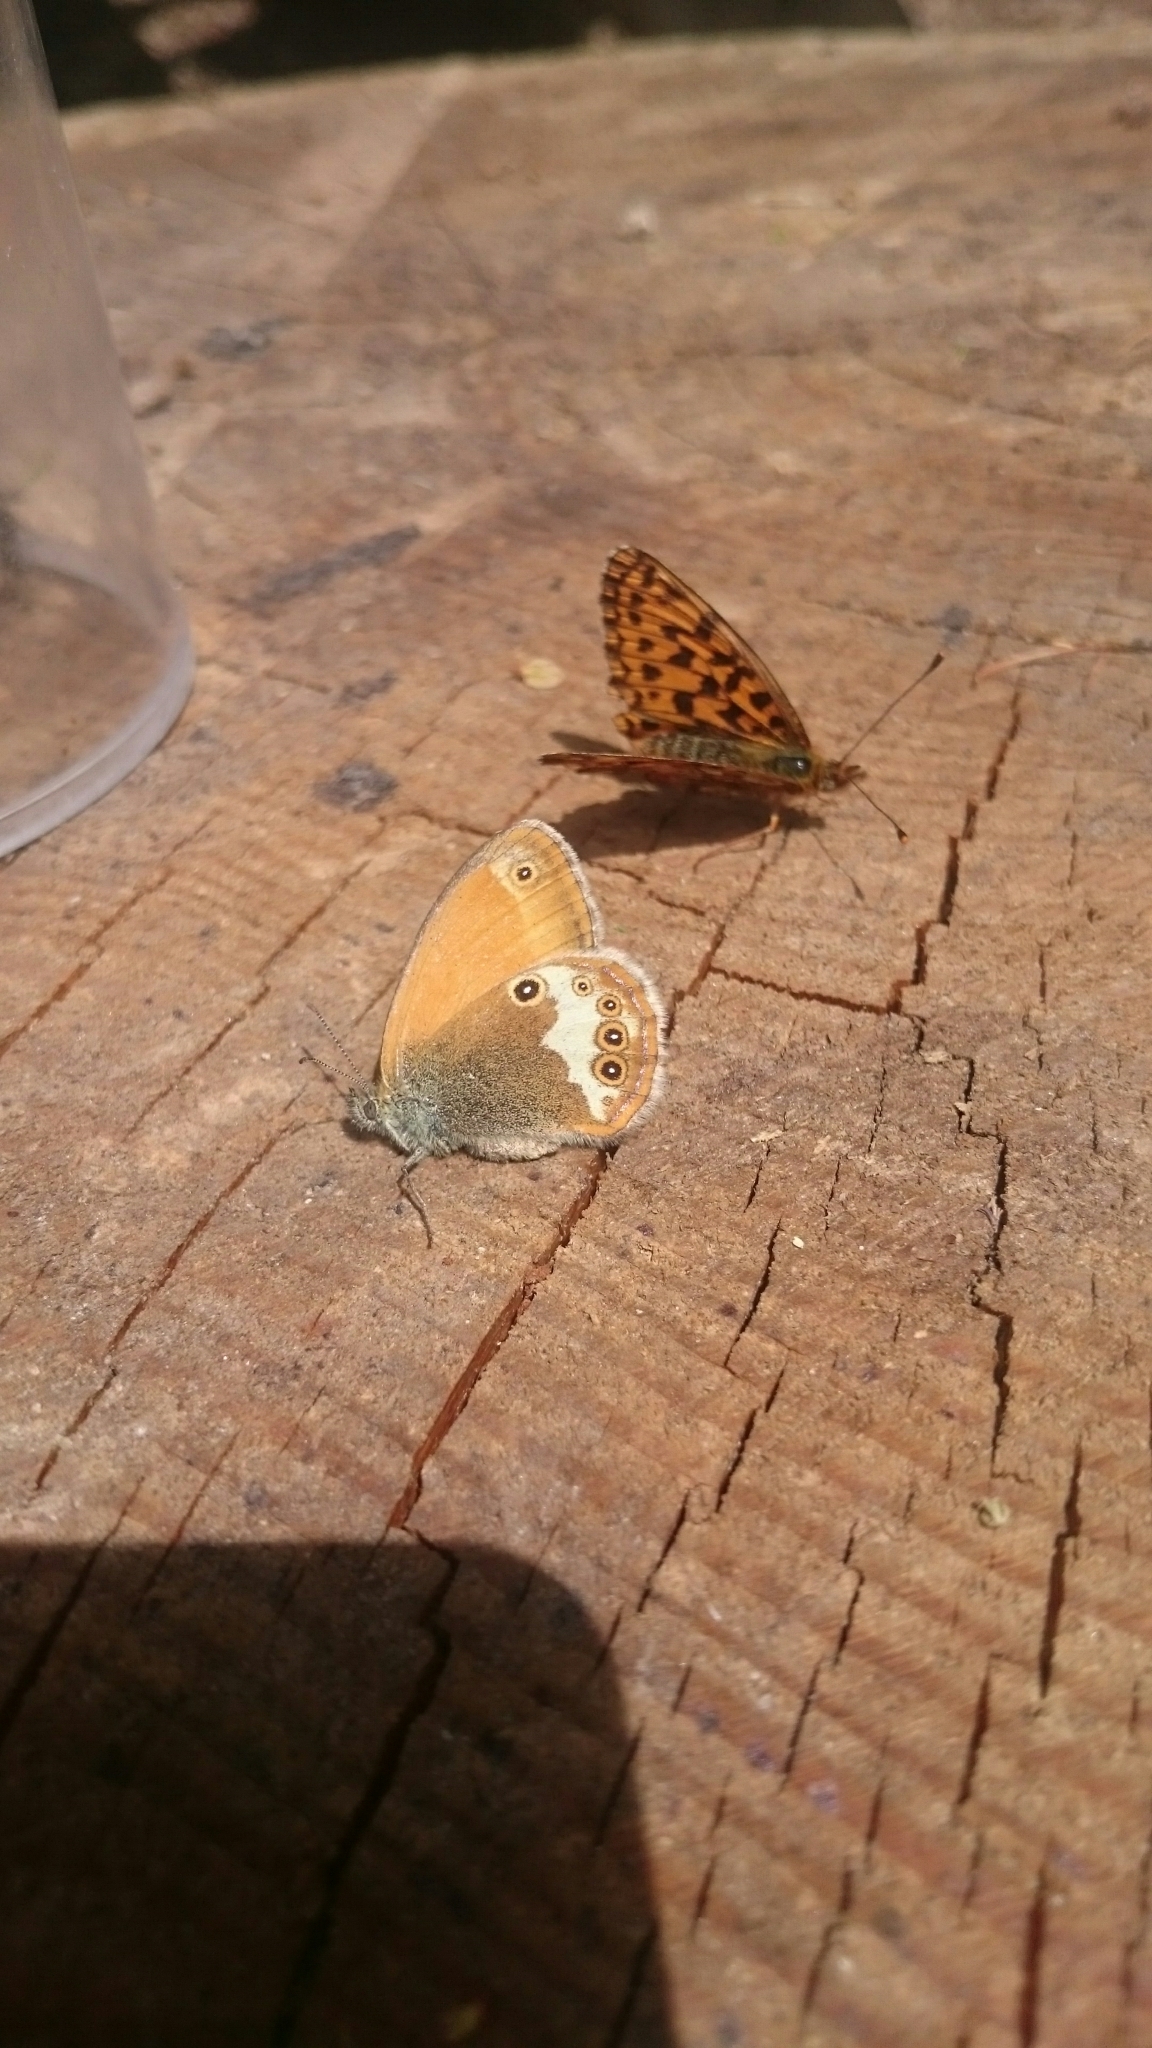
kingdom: Animalia
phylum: Arthropoda
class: Insecta
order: Lepidoptera
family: Nymphalidae
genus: Coenonympha
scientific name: Coenonympha arcania
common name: Pearly heath
